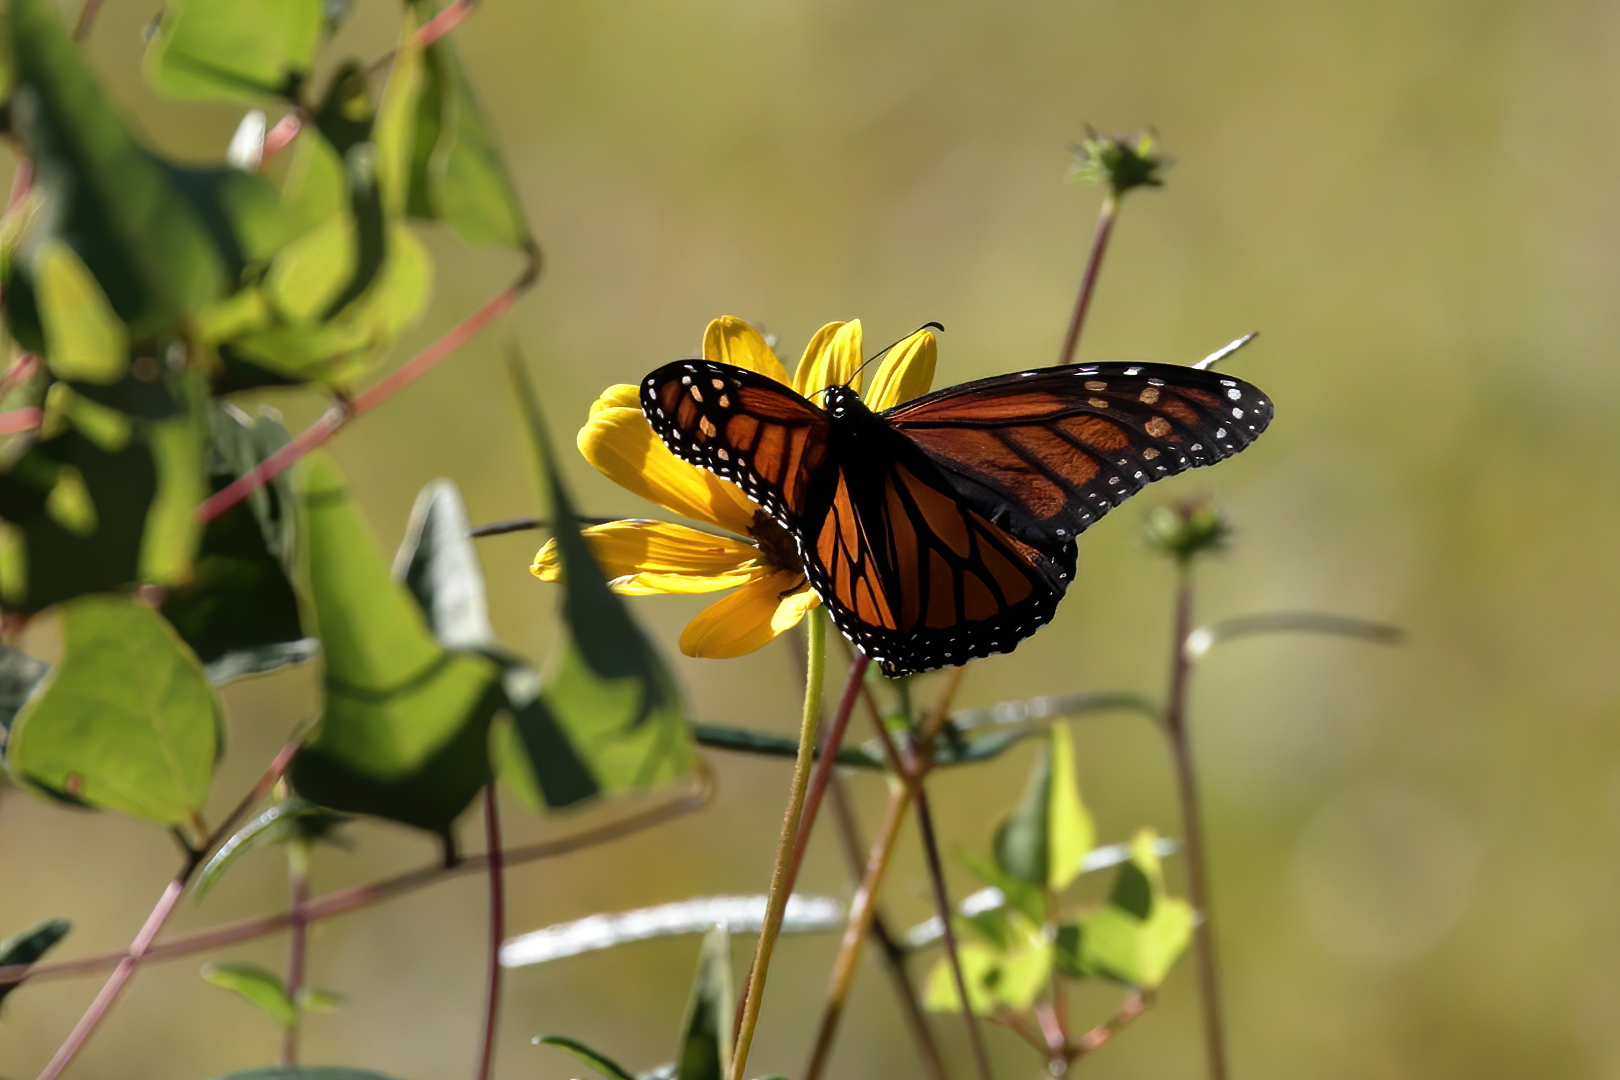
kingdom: Animalia
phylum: Arthropoda
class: Insecta
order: Lepidoptera
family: Nymphalidae
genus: Danaus
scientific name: Danaus plexippus
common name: Monarch
